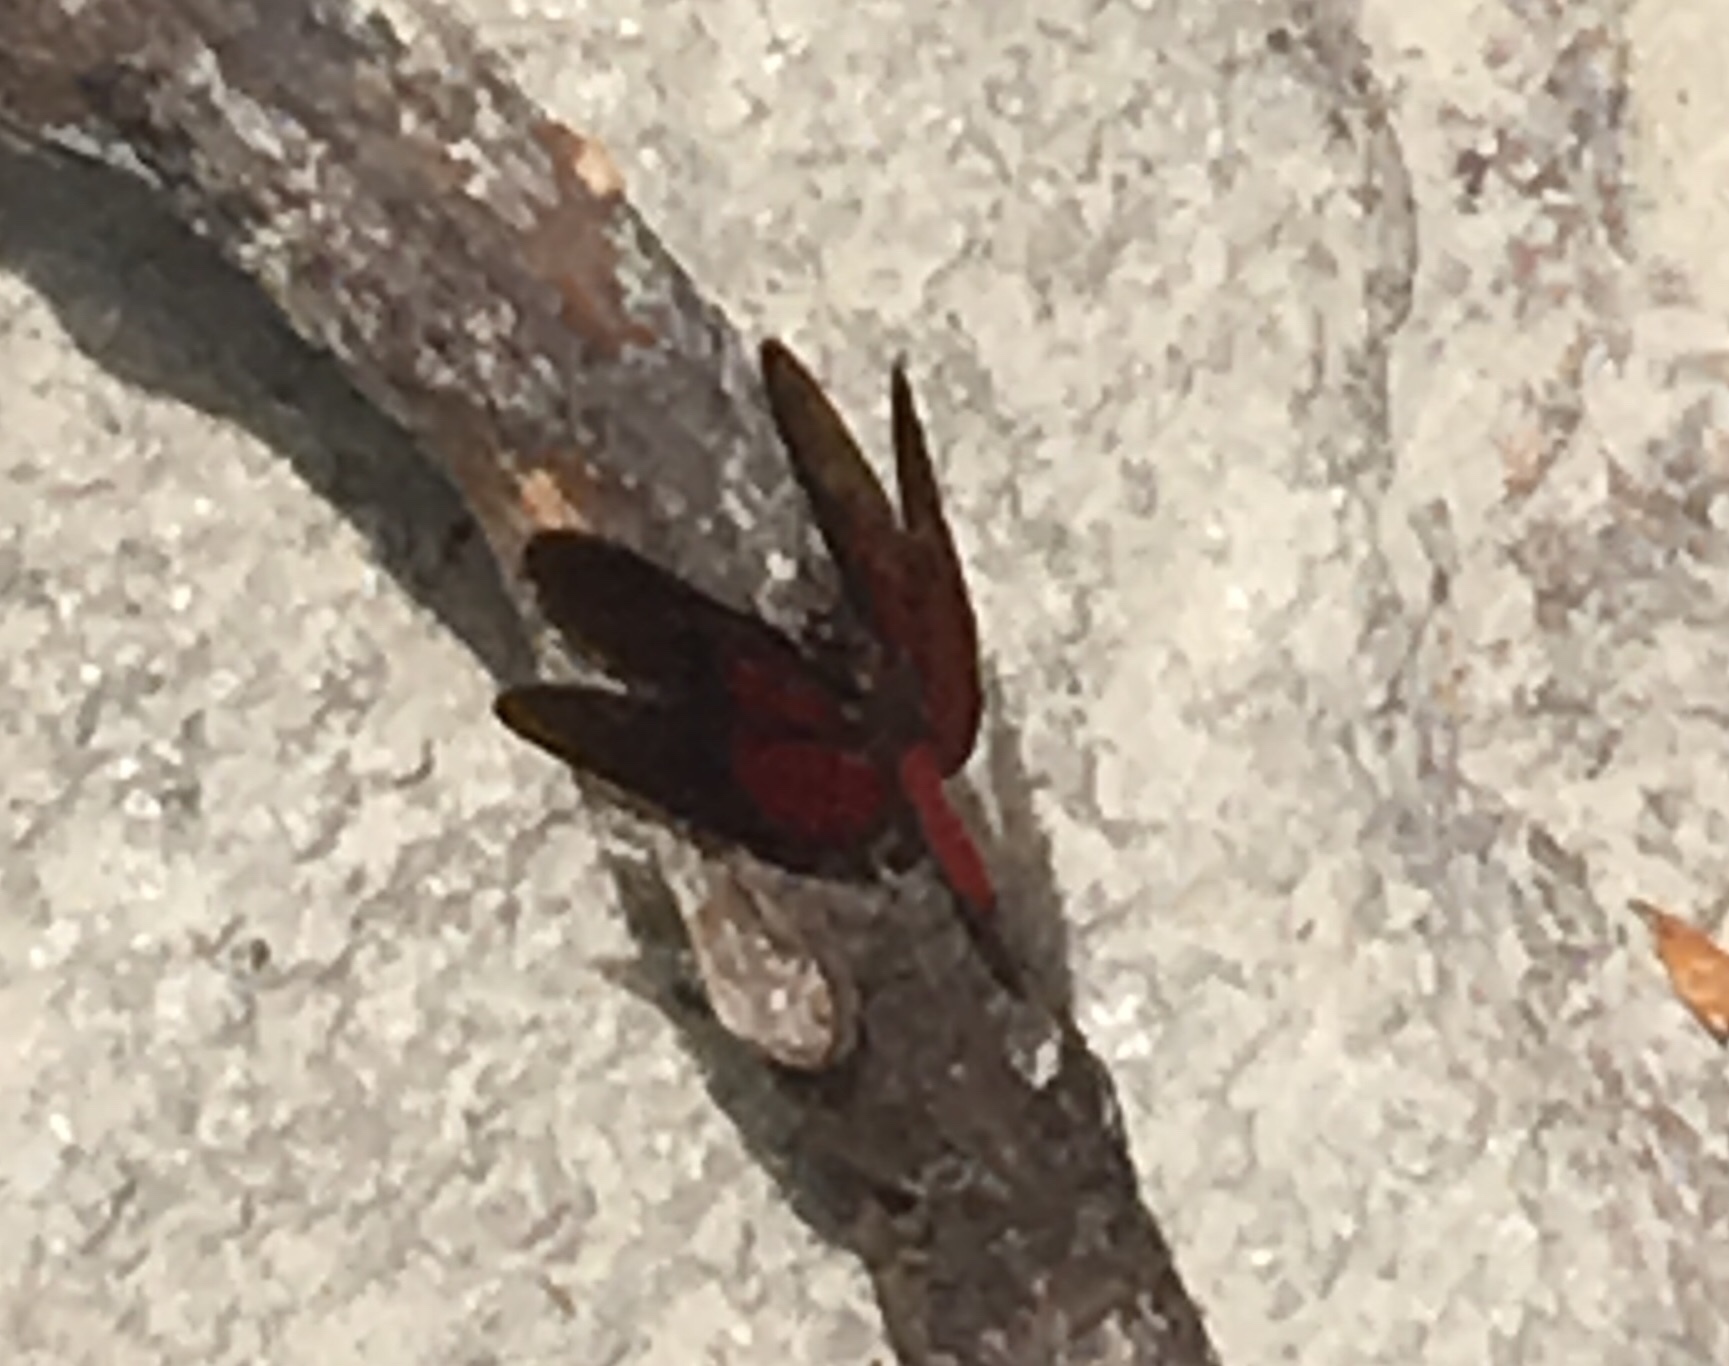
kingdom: Animalia
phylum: Arthropoda
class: Insecta
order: Odonata
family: Libellulidae
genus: Diastatops
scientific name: Diastatops intensa
